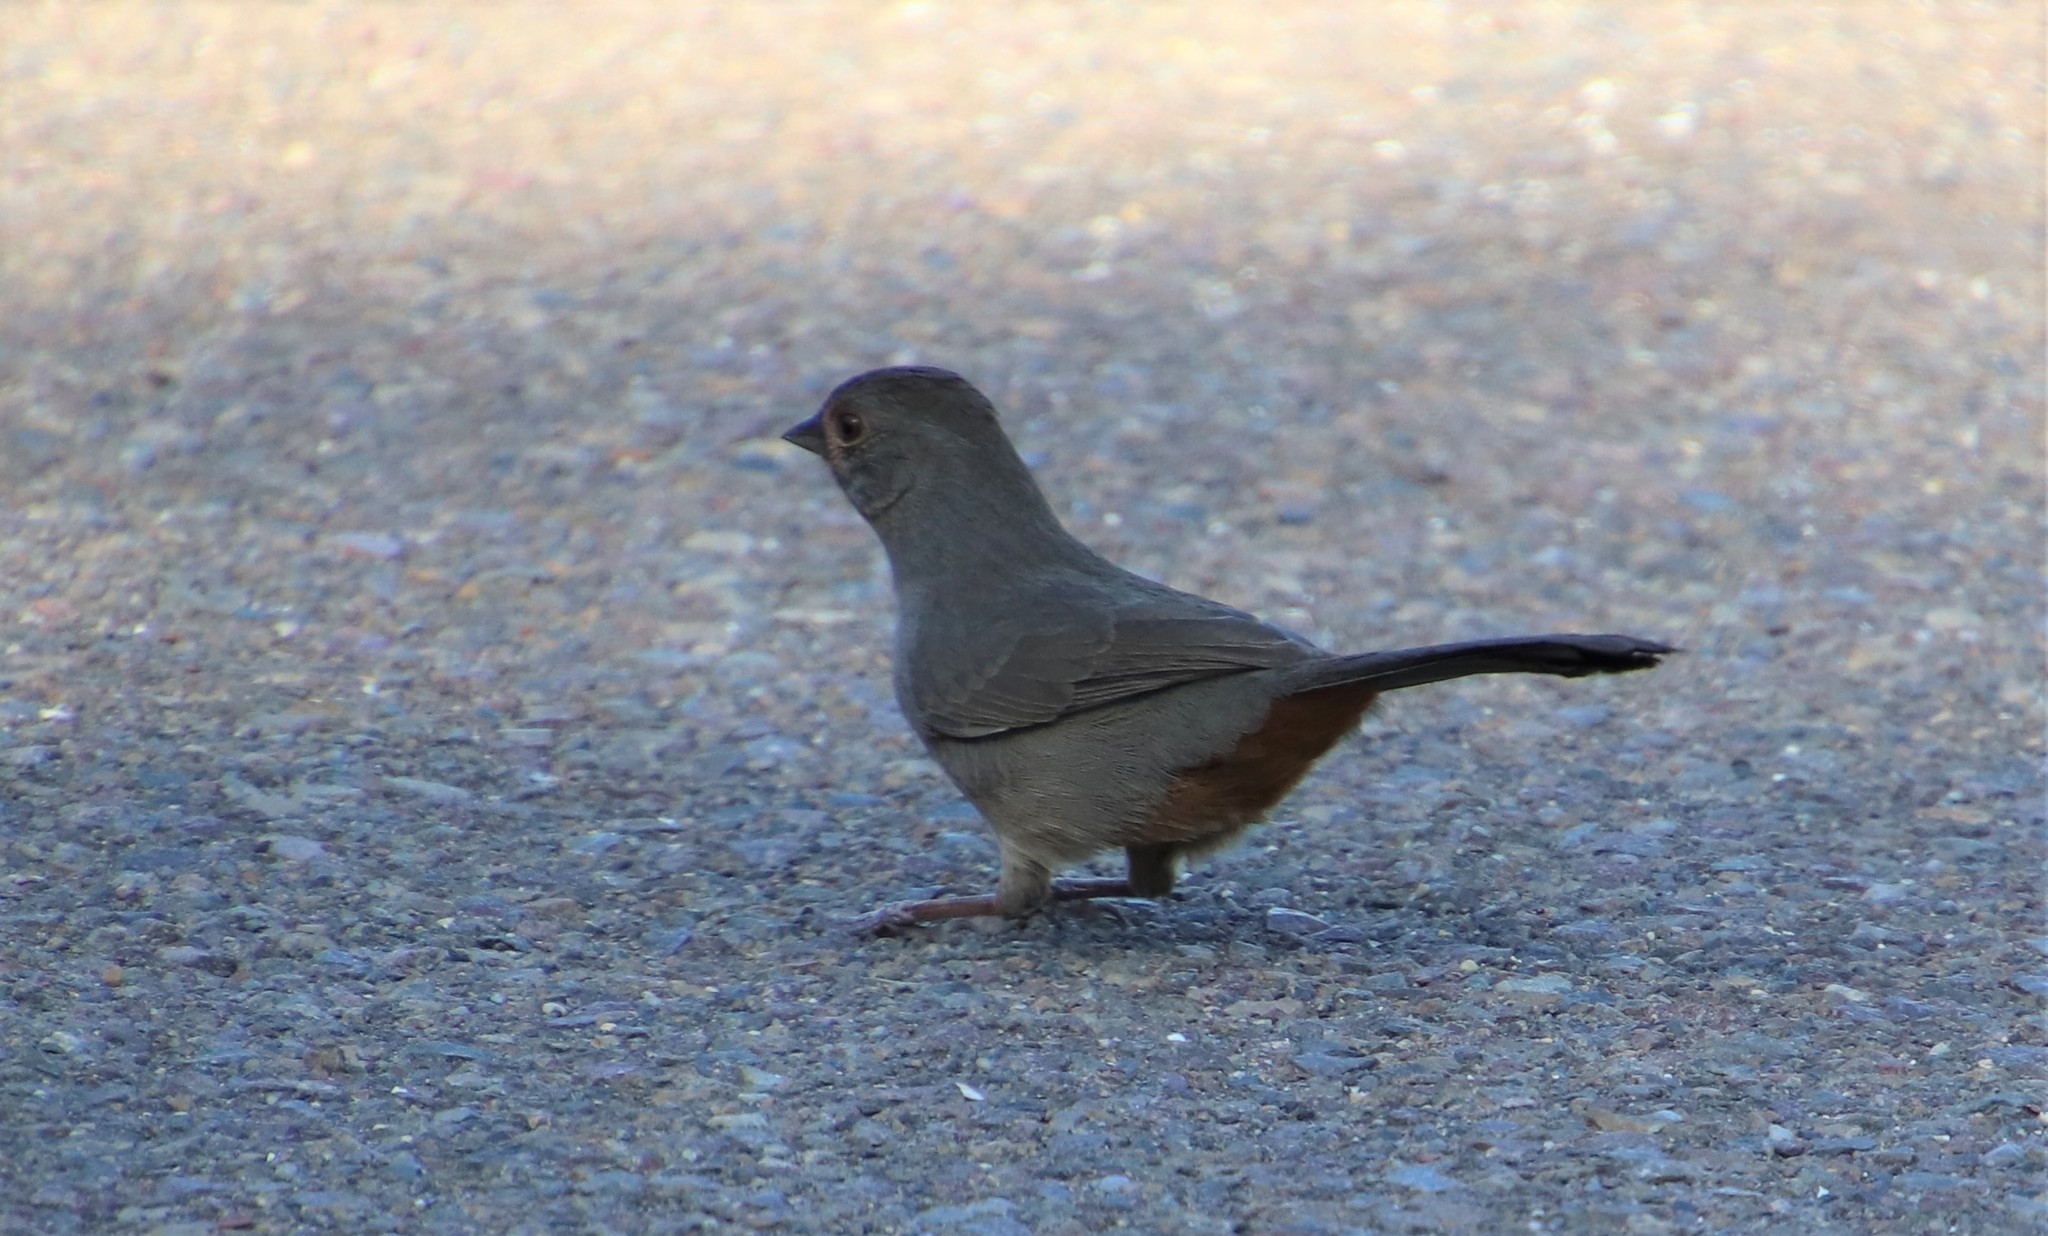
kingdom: Animalia
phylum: Chordata
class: Aves
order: Passeriformes
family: Passerellidae
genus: Melozone
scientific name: Melozone crissalis
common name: California towhee
